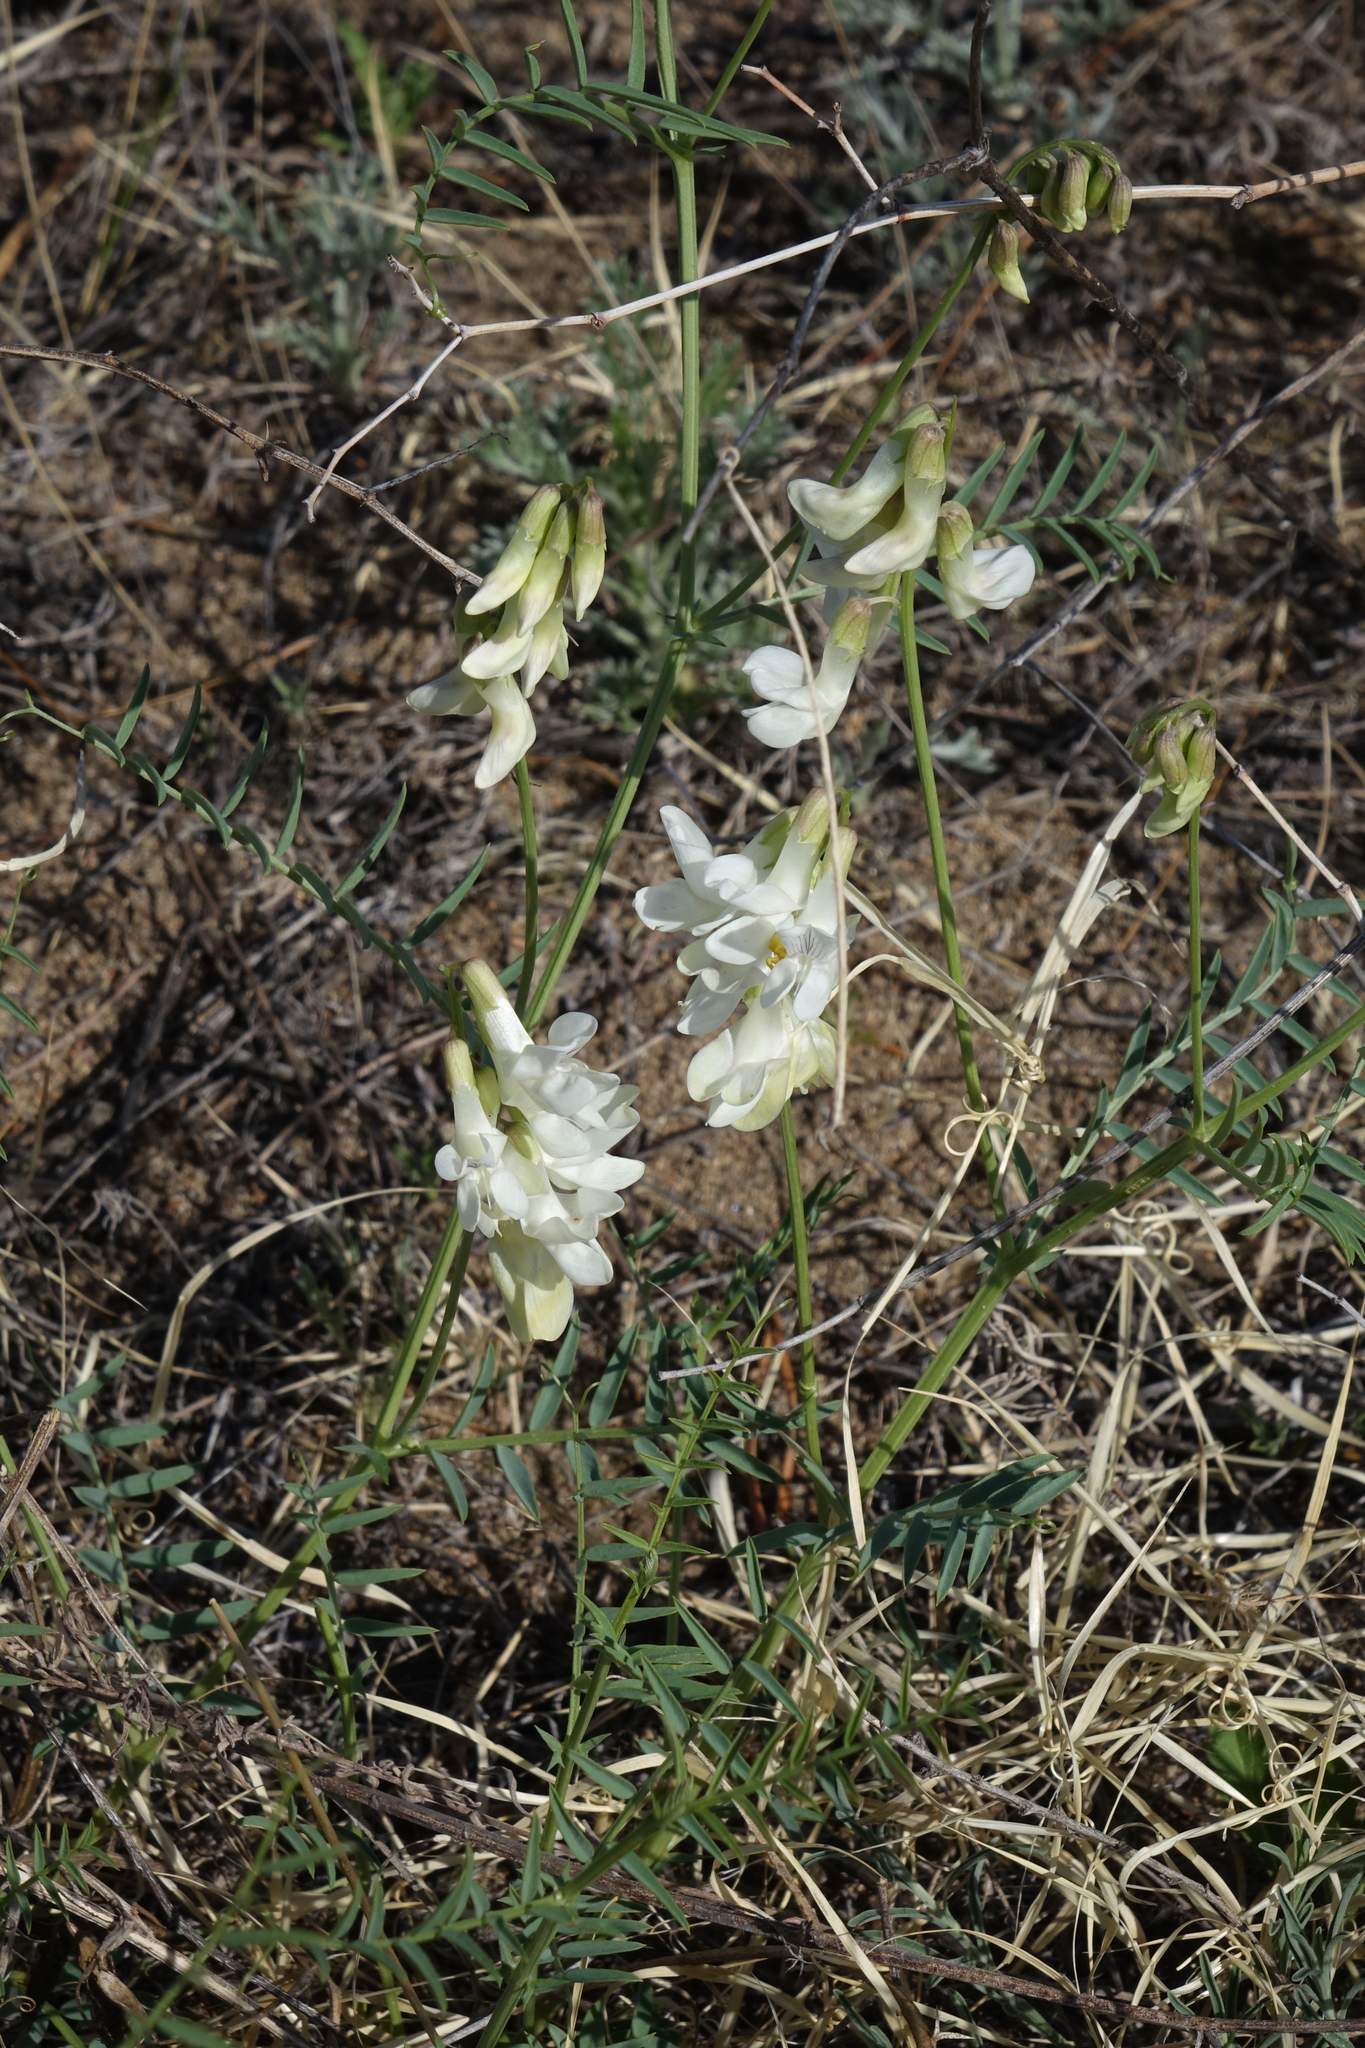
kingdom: Plantae
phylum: Tracheophyta
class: Magnoliopsida
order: Fabales
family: Fabaceae
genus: Vicia
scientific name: Vicia costata
